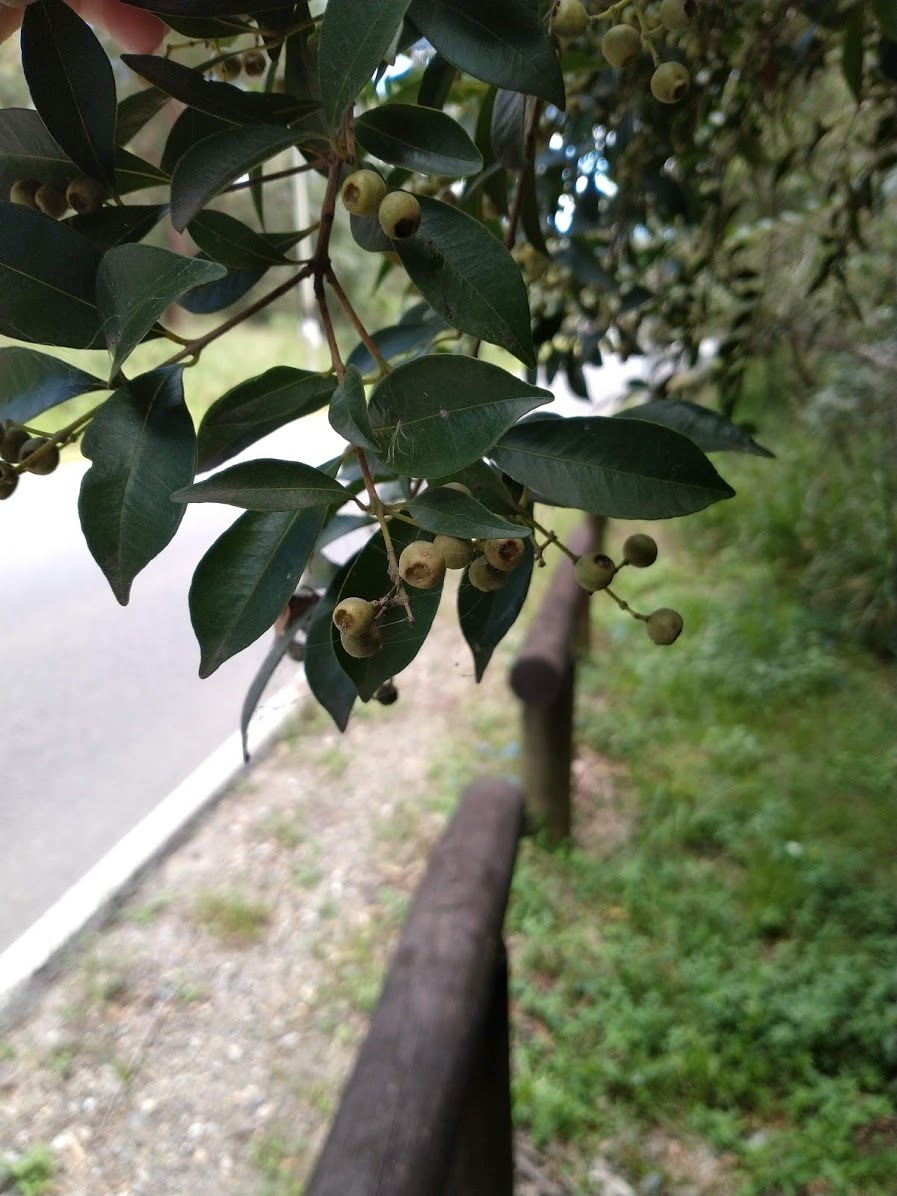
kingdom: Plantae
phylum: Tracheophyta
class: Magnoliopsida
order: Myrtales
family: Myrtaceae
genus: Syzygium
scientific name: Syzygium smithii
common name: Lilly-pilly
